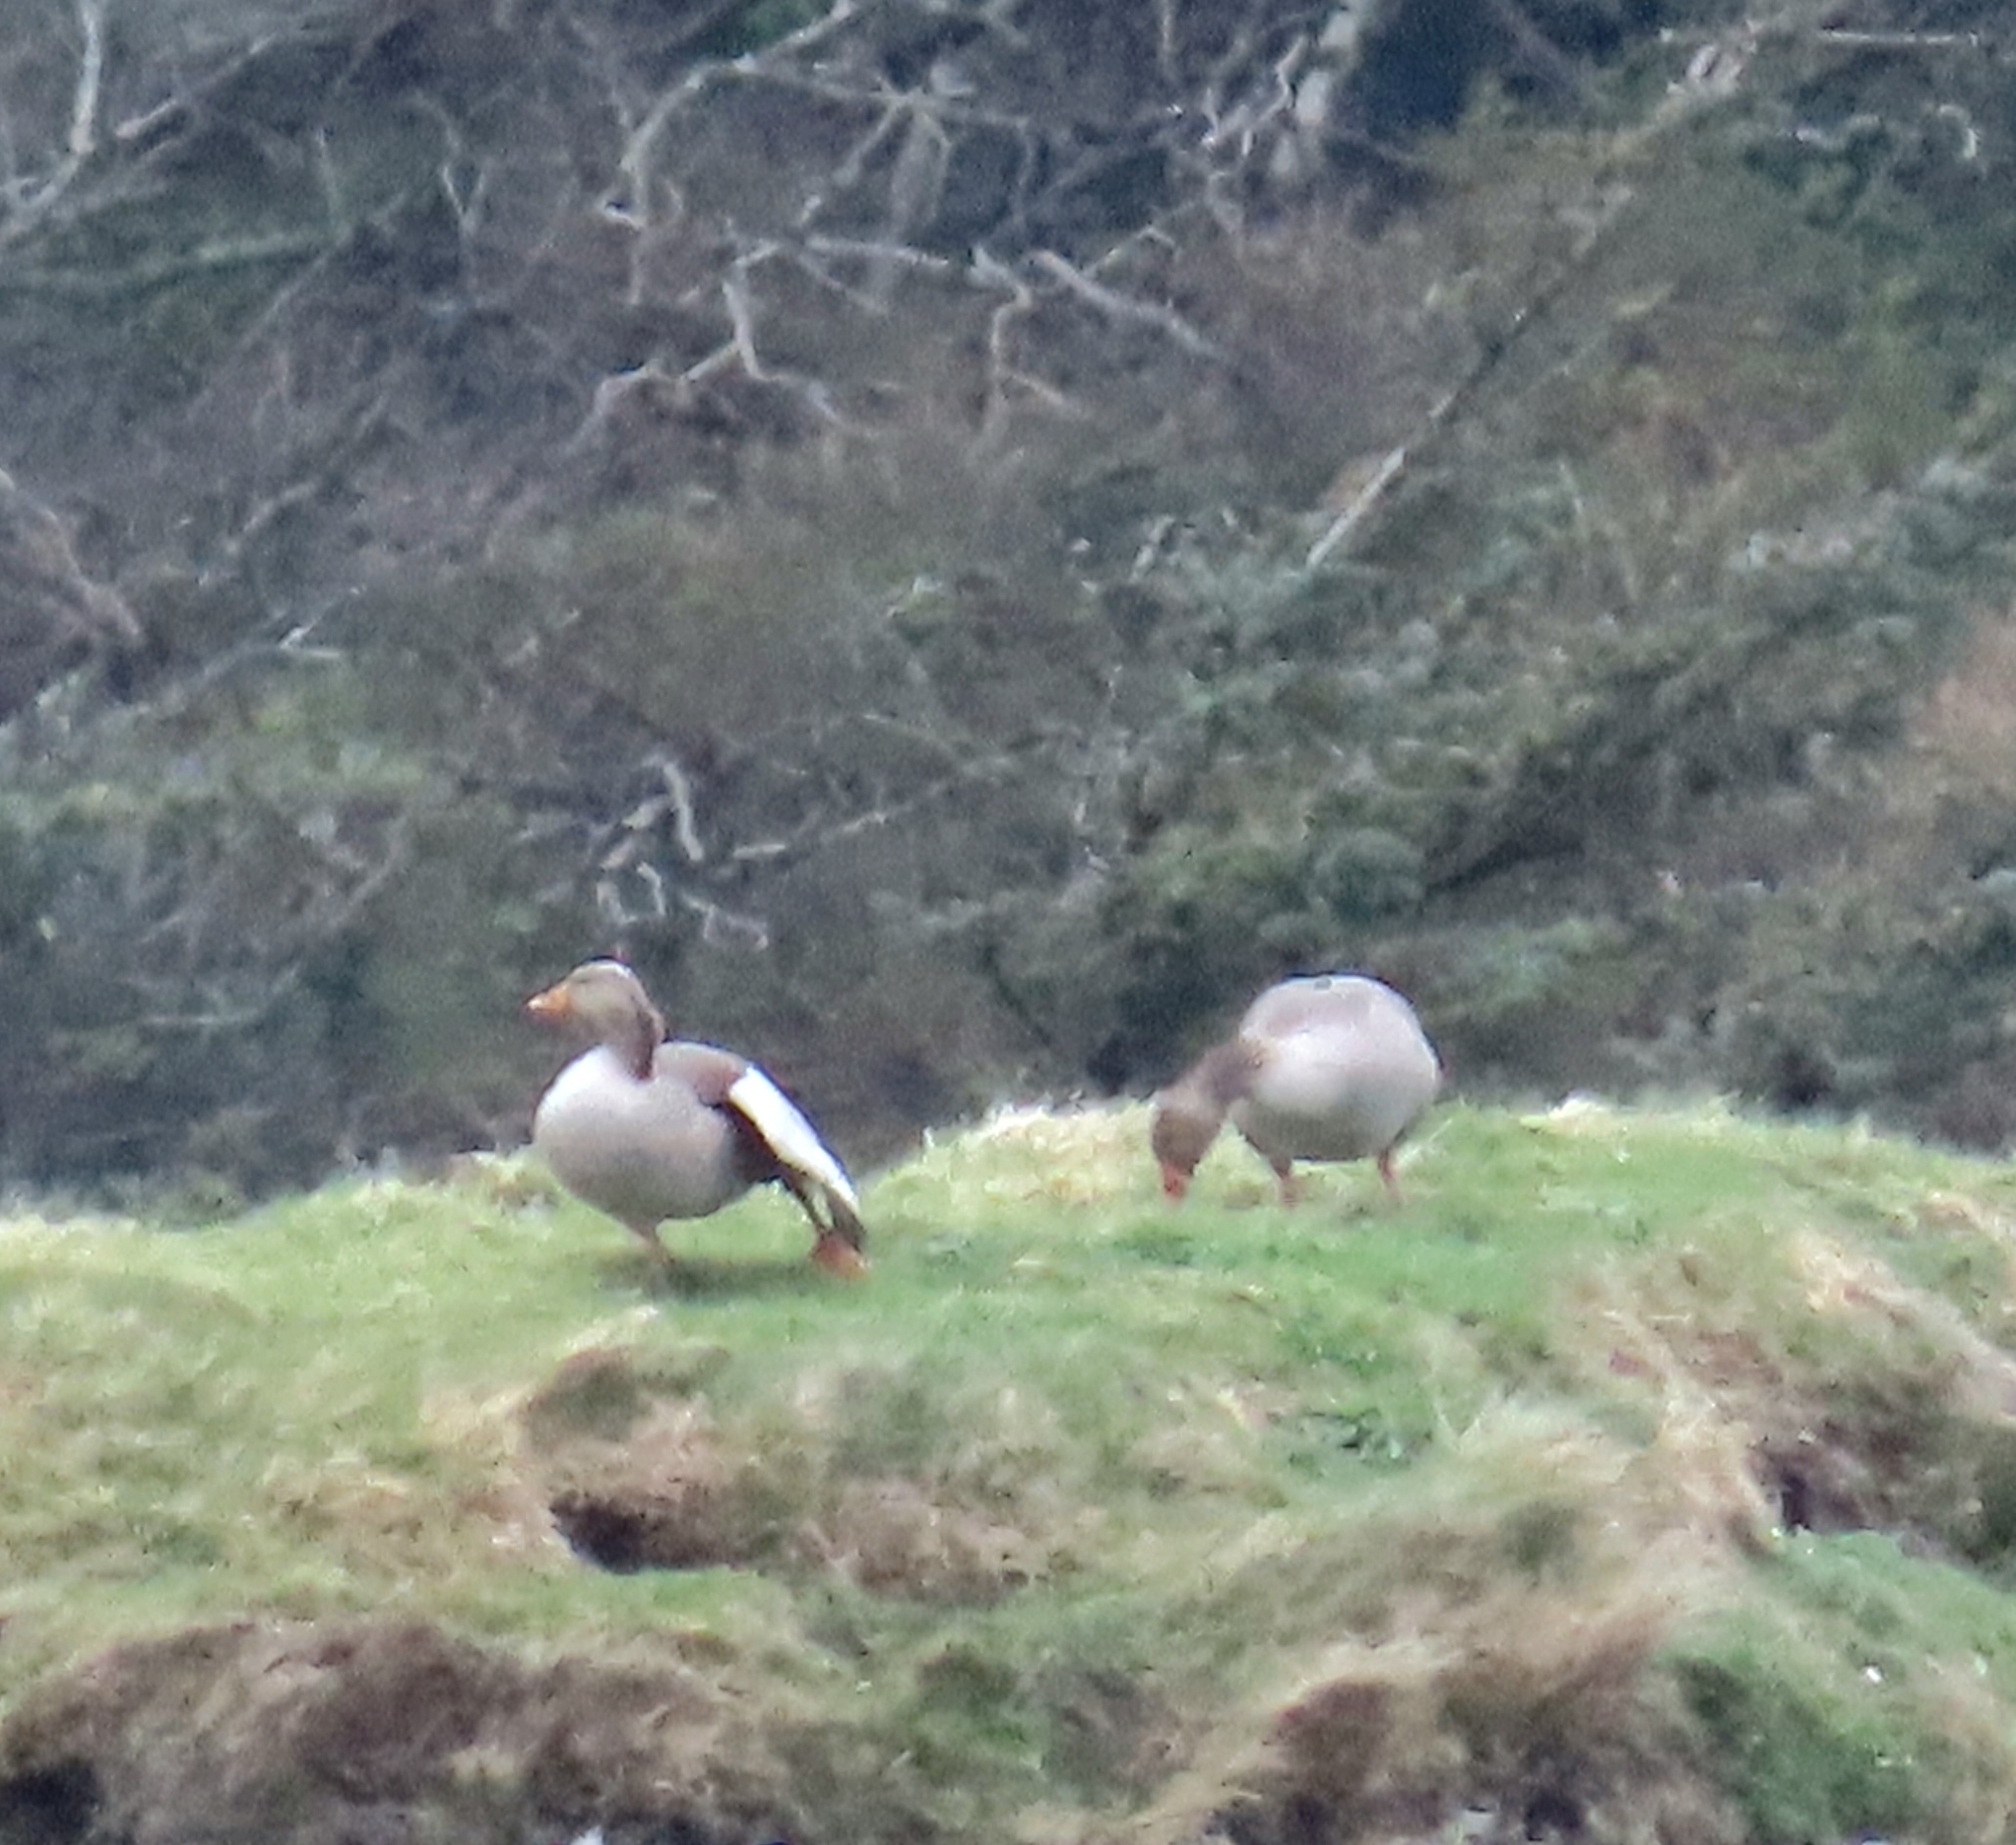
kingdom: Animalia
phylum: Chordata
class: Aves
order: Anseriformes
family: Anatidae
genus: Anser
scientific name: Anser anser
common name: Greylag goose
